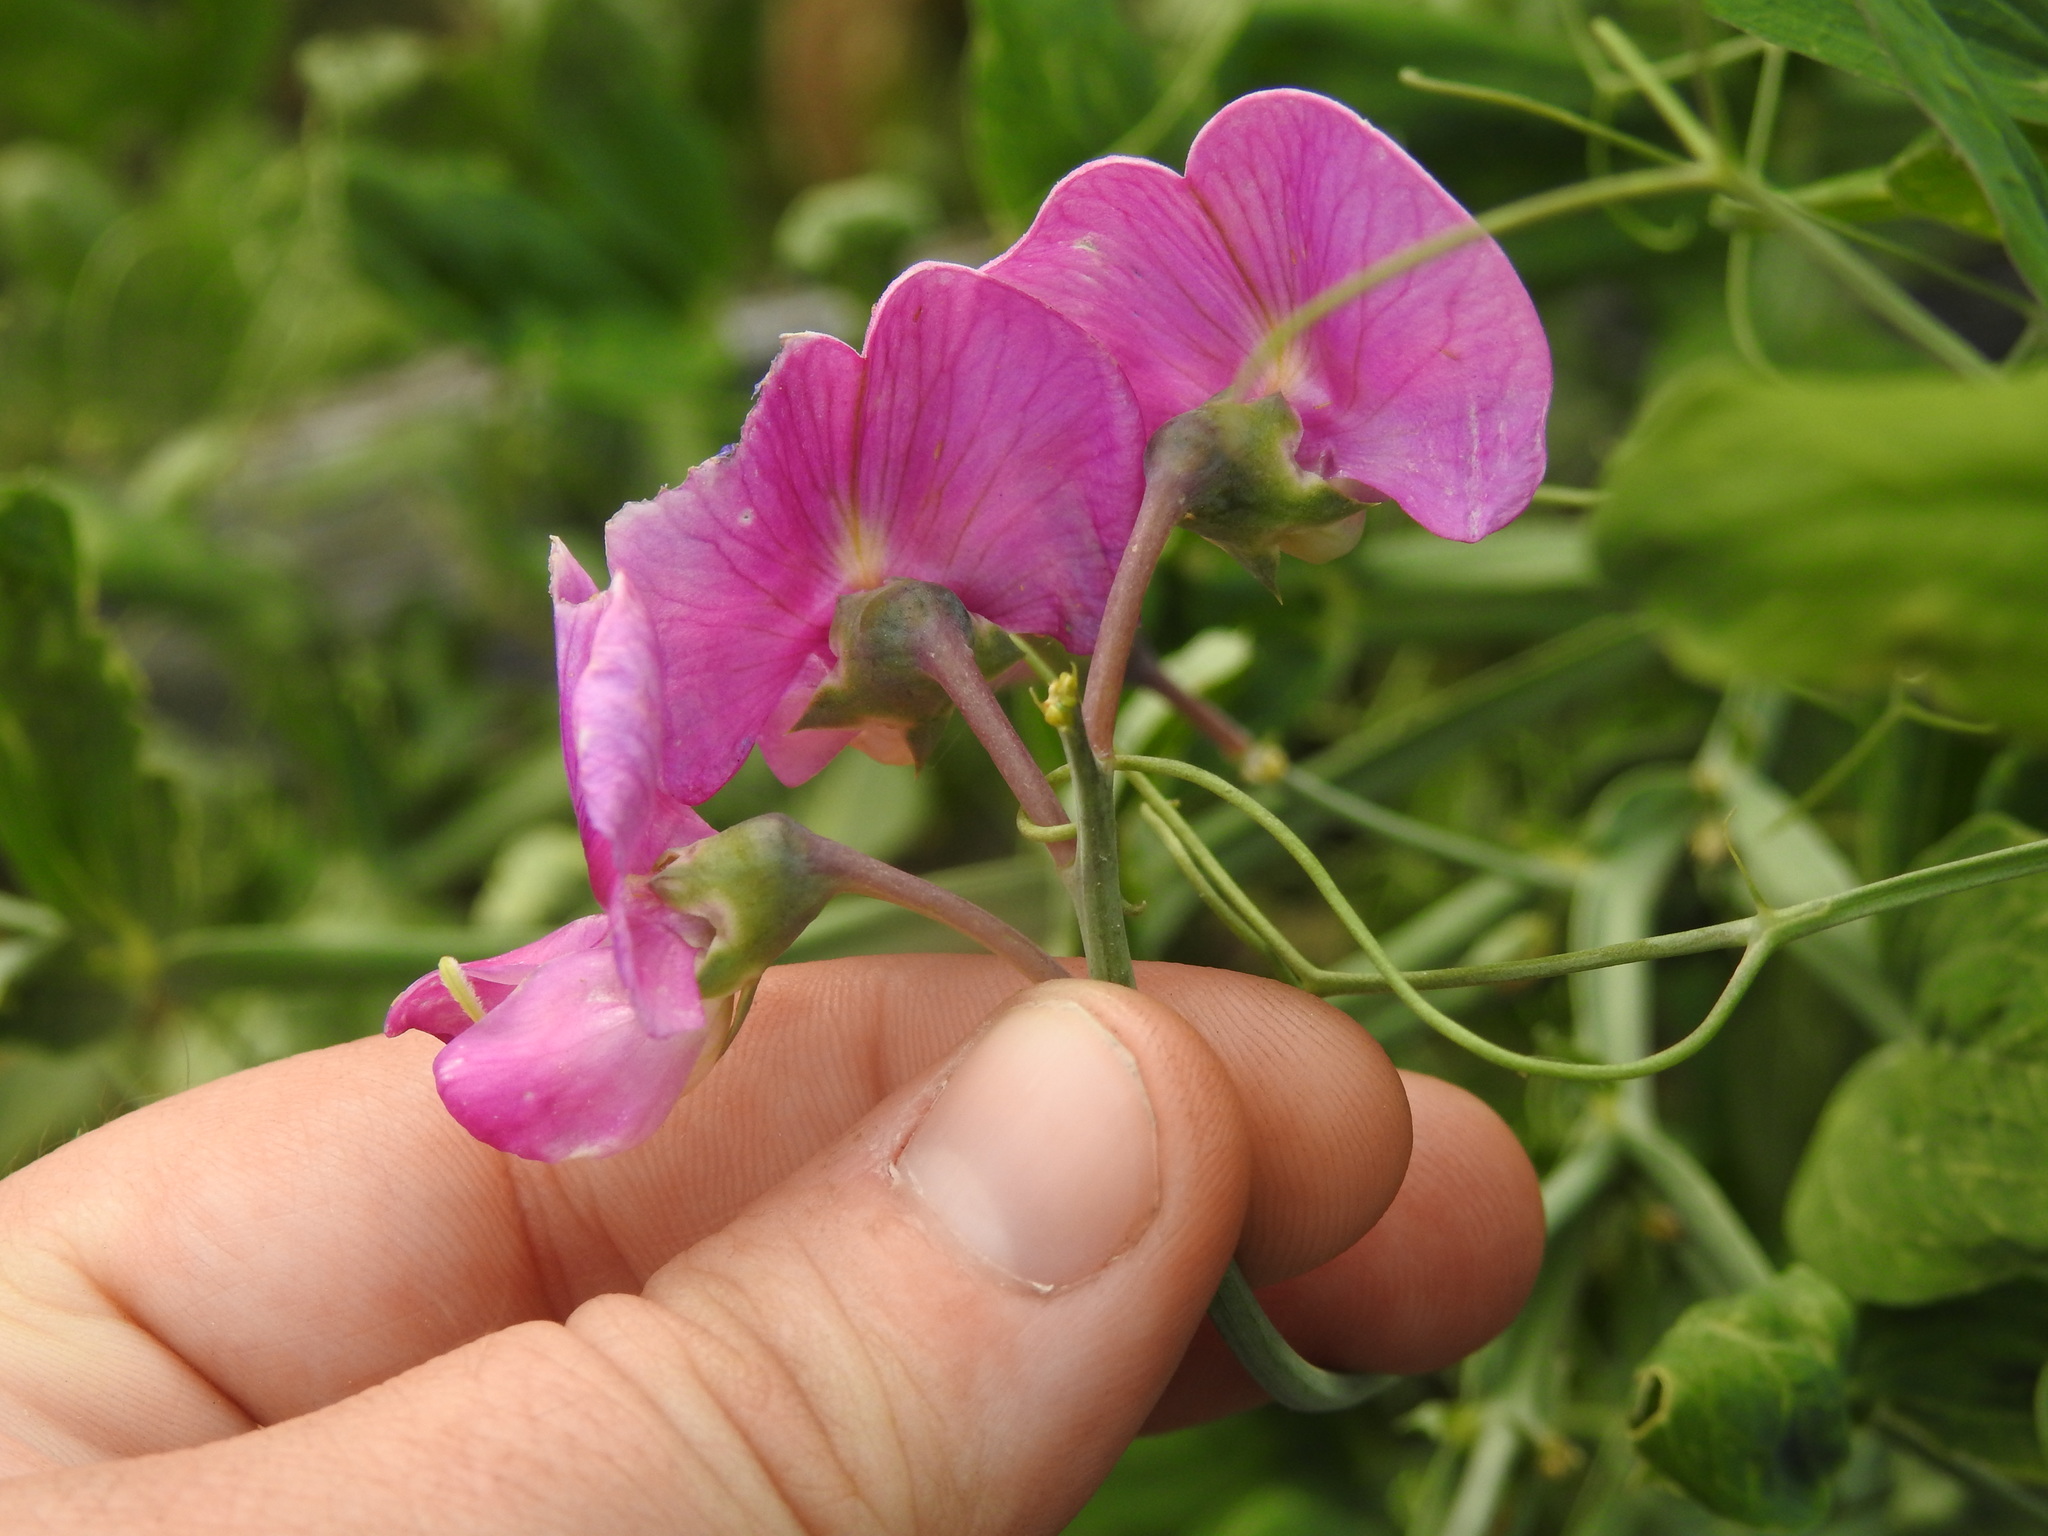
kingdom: Plantae
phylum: Tracheophyta
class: Magnoliopsida
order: Fabales
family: Fabaceae
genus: Lathyrus
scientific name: Lathyrus latifolius
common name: Perennial pea
